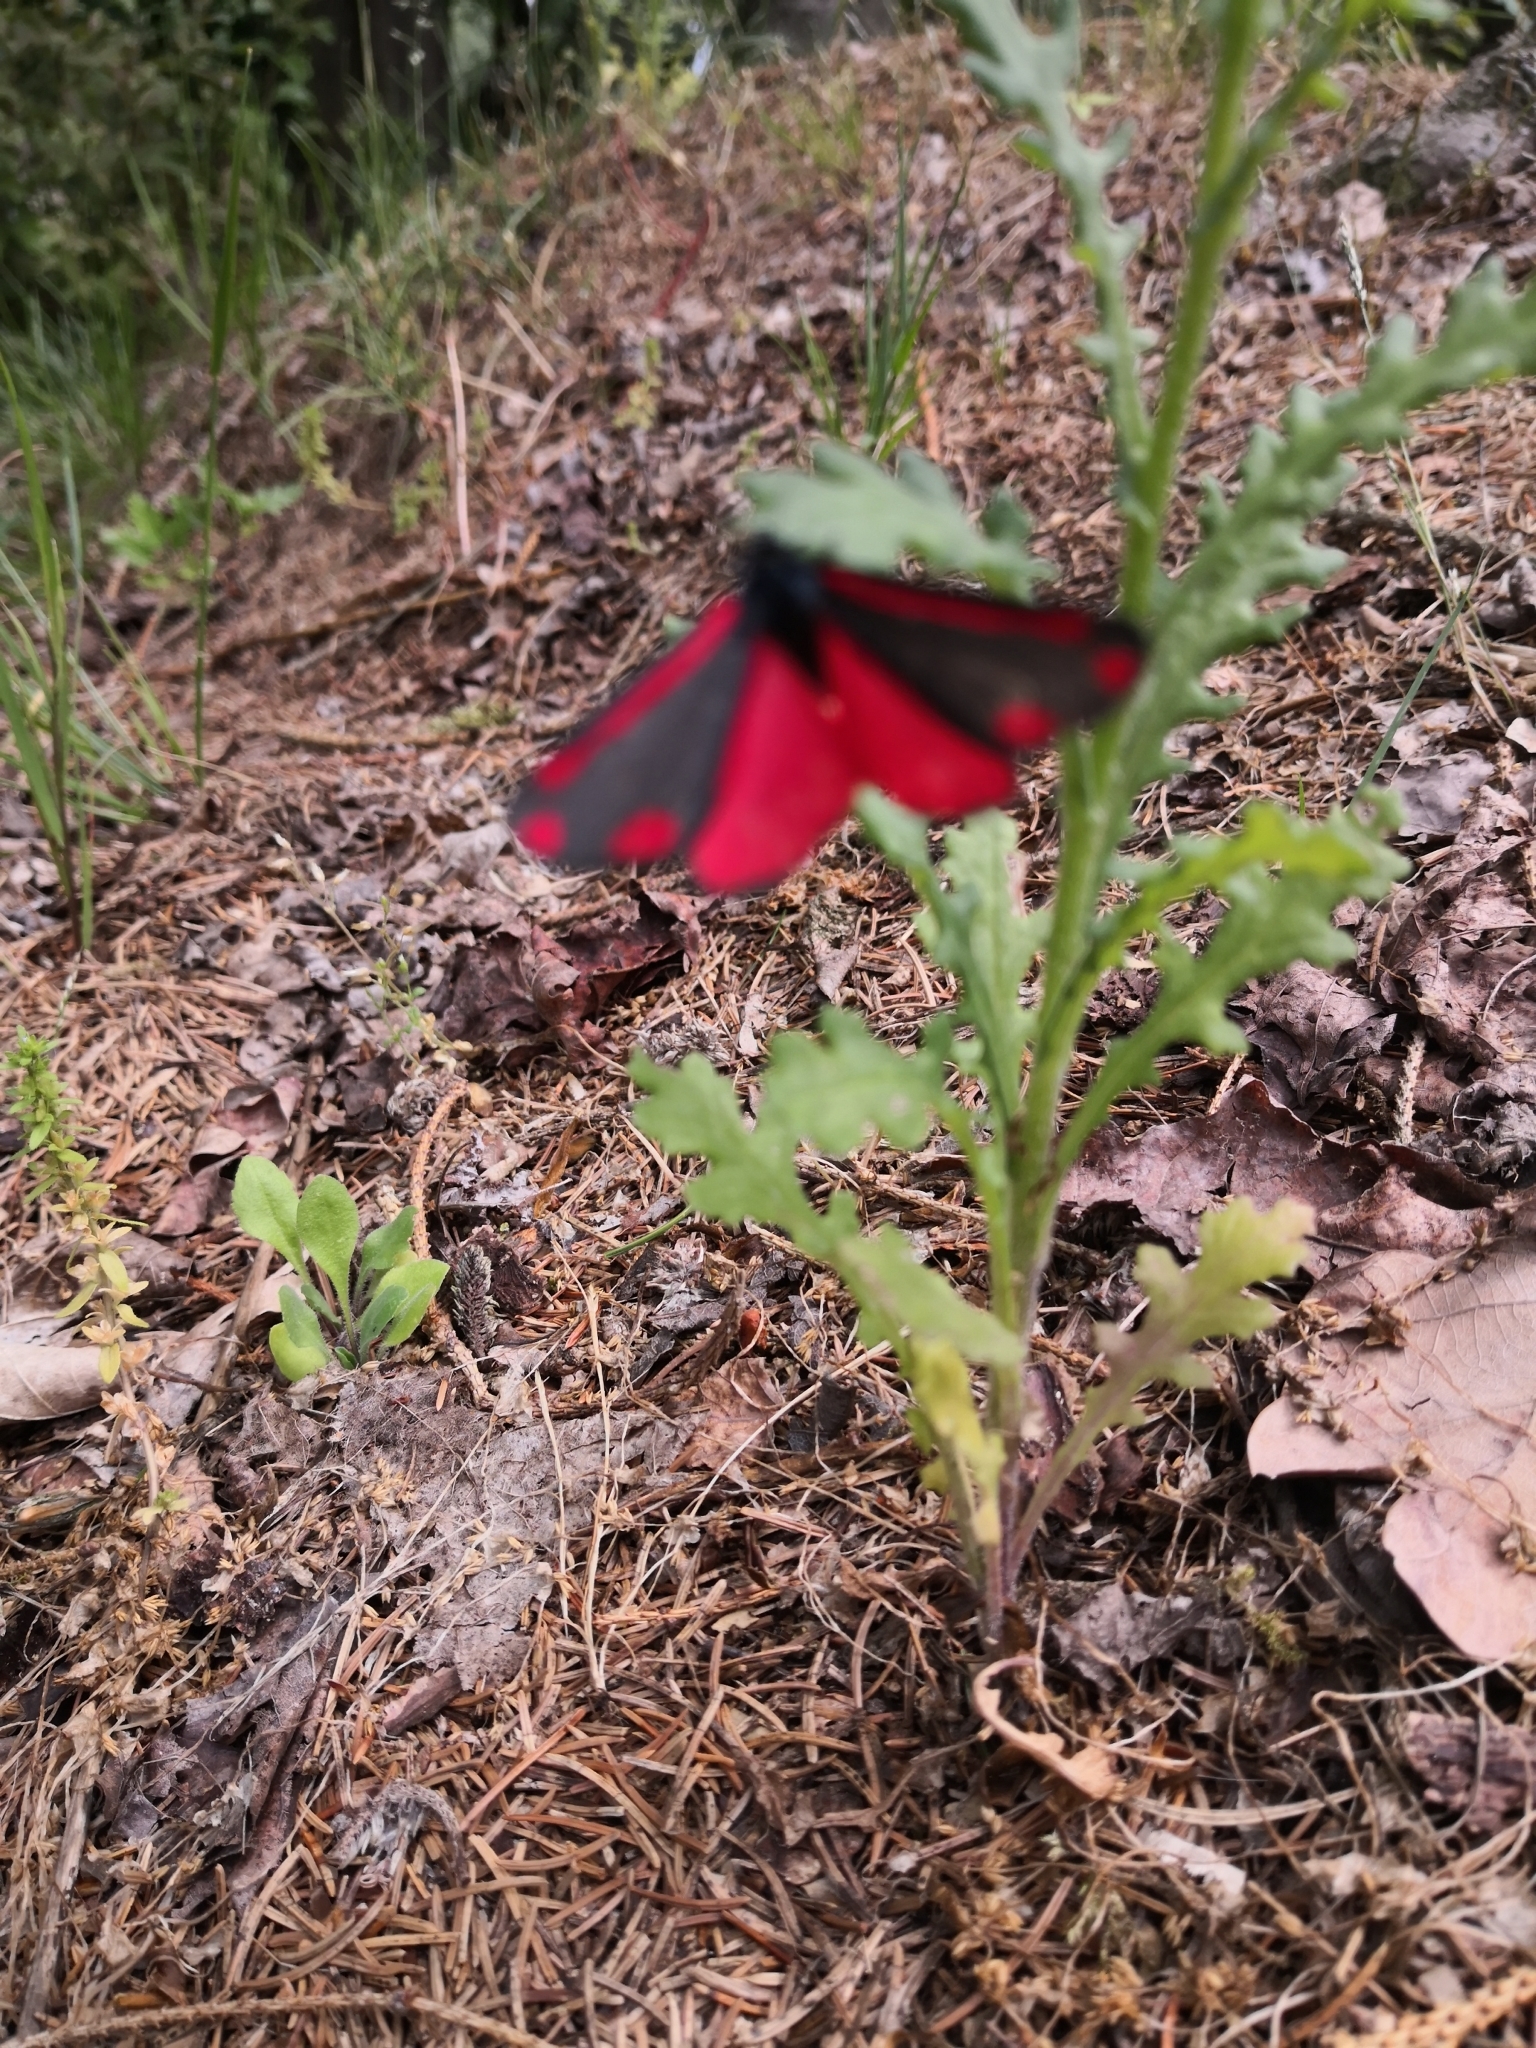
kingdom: Animalia
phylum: Arthropoda
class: Insecta
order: Lepidoptera
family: Erebidae
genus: Tyria
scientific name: Tyria jacobaeae
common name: Cinnabar
